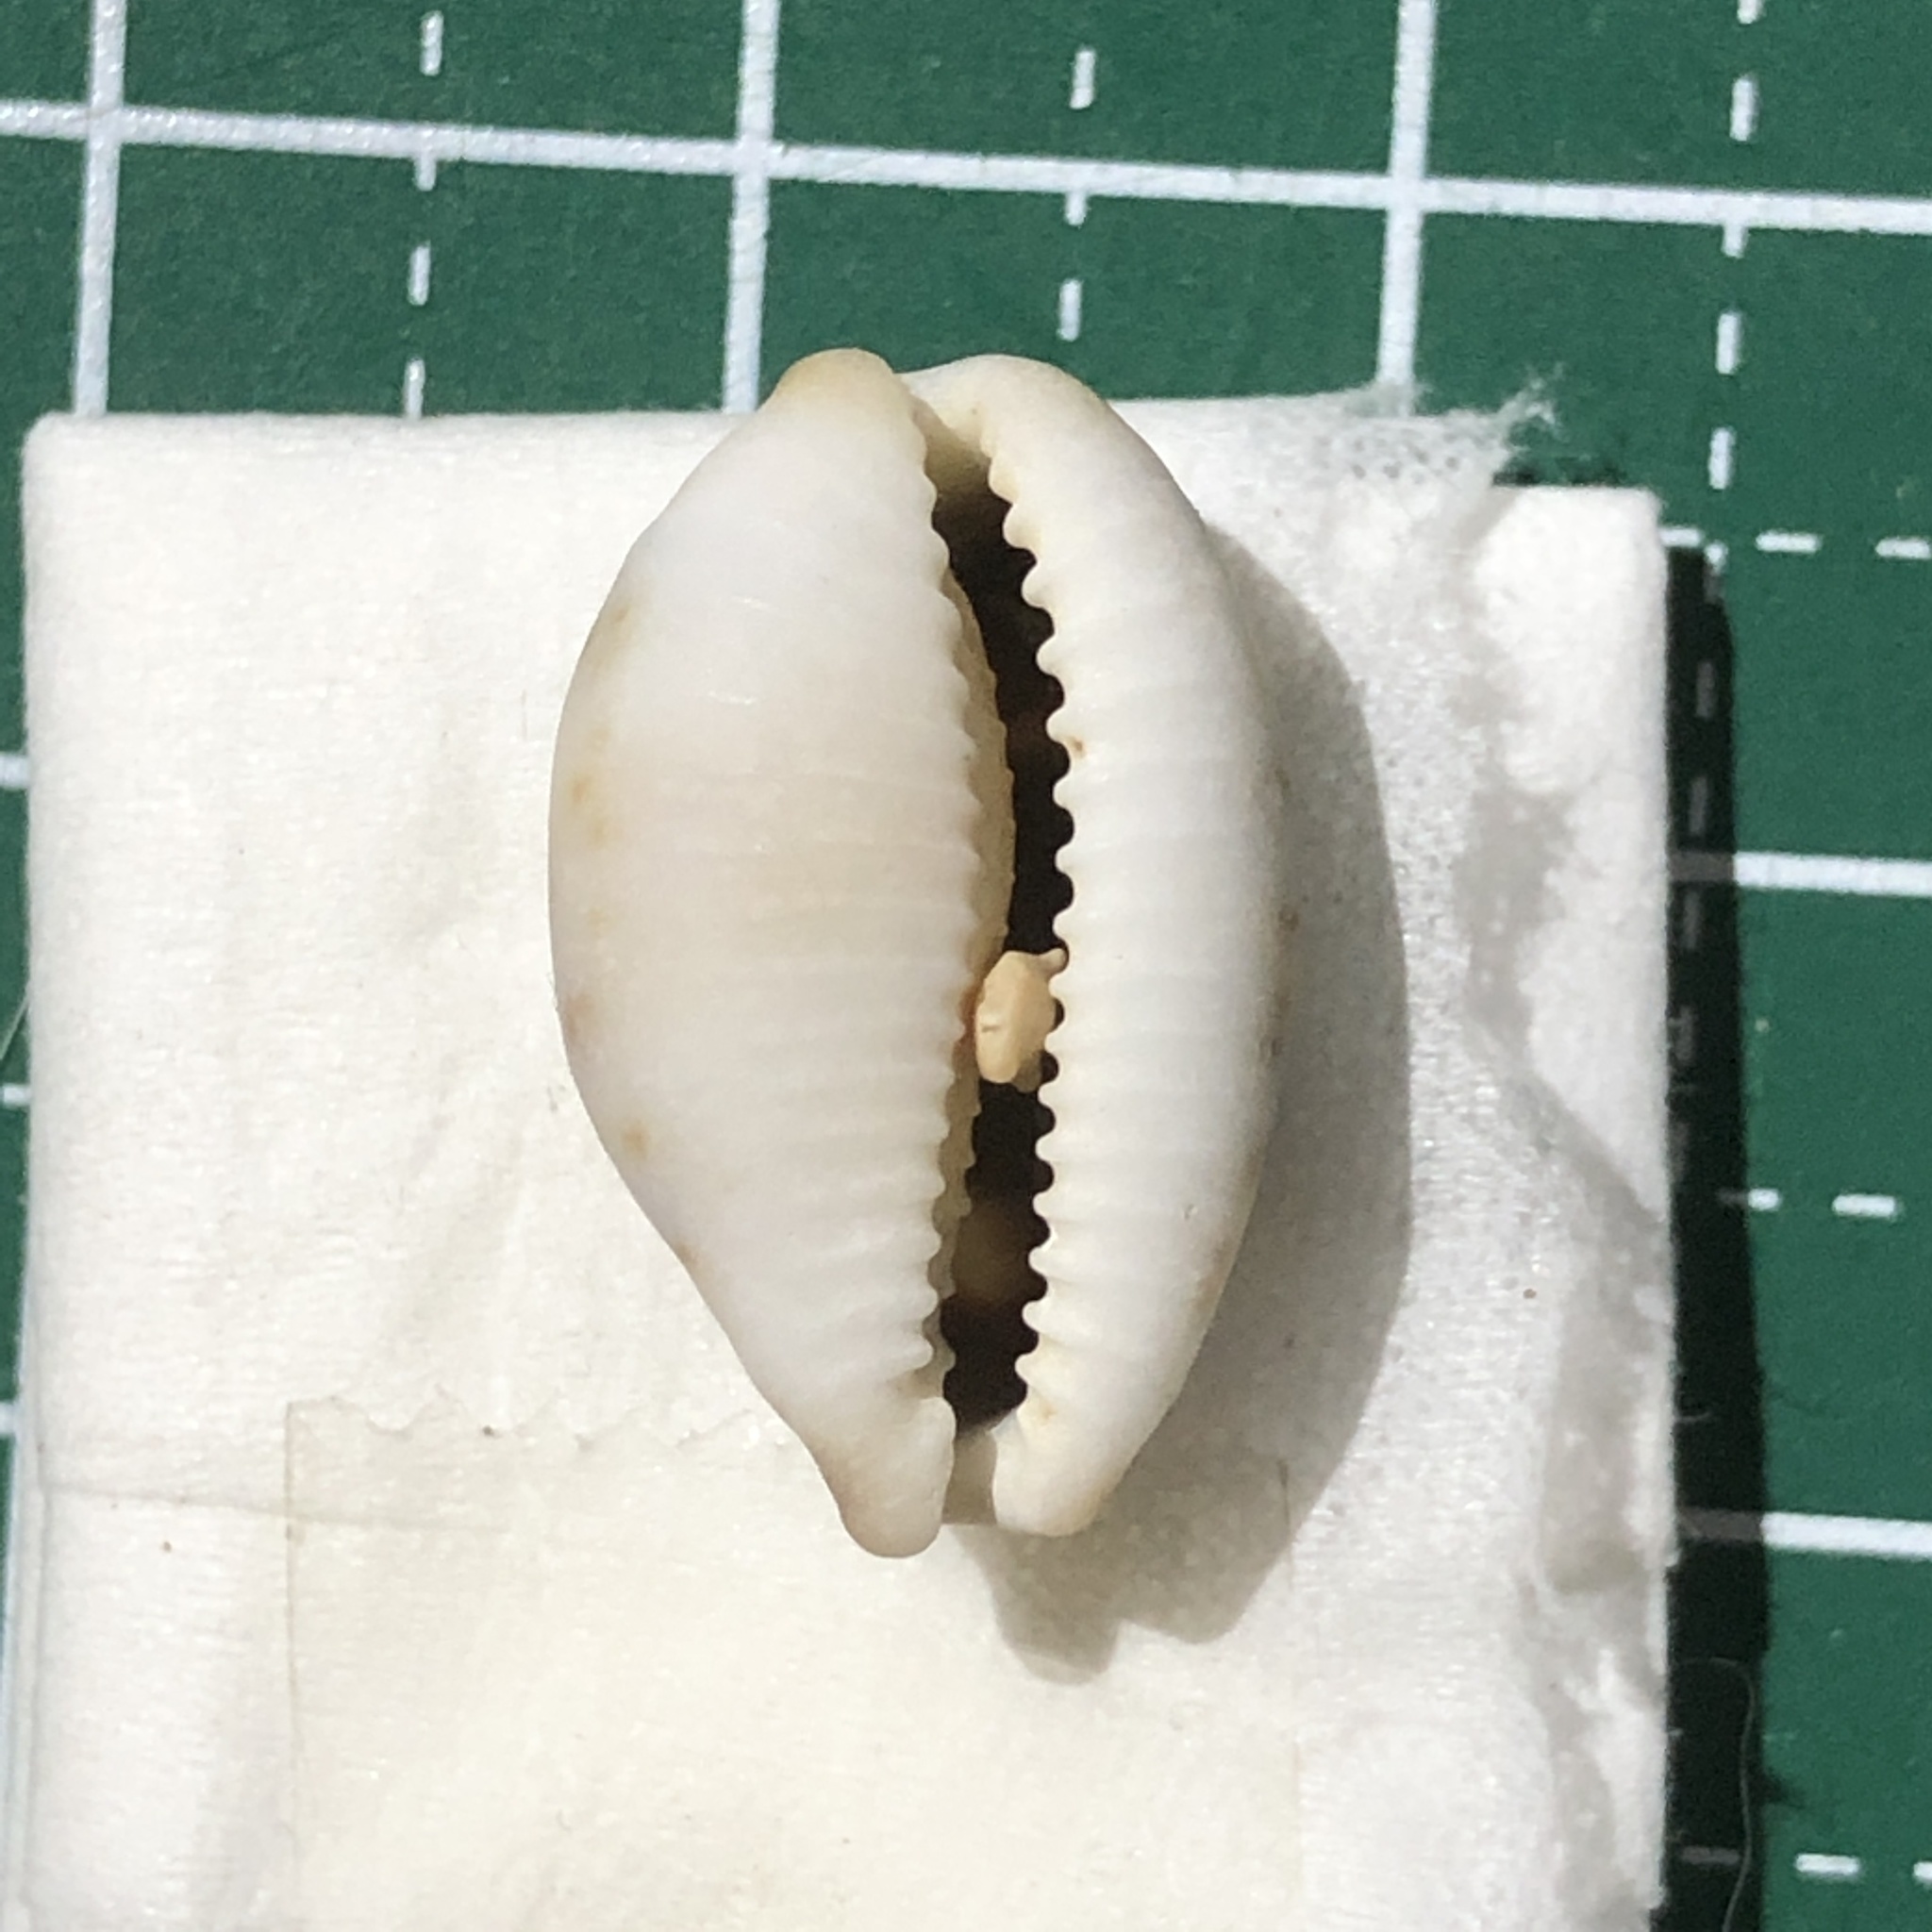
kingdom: Animalia
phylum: Mollusca
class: Gastropoda
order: Littorinimorpha
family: Cypraeidae
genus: Bistolida
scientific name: Bistolida hirundo
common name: Cowrie
